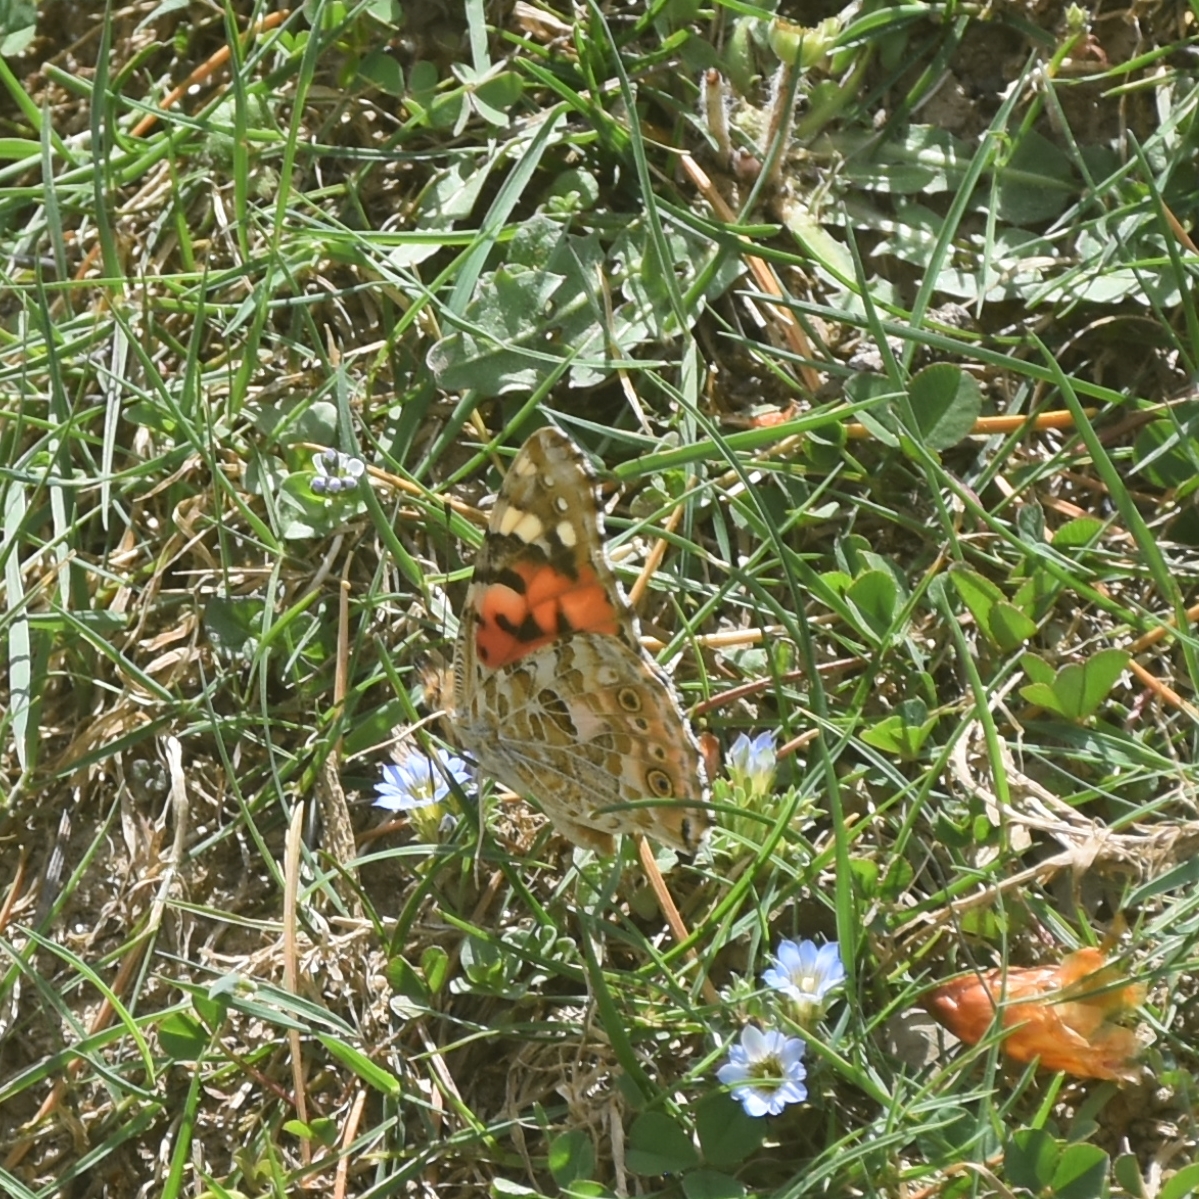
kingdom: Animalia
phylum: Arthropoda
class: Insecta
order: Lepidoptera
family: Nymphalidae
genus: Vanessa
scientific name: Vanessa cardui
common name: Painted lady
